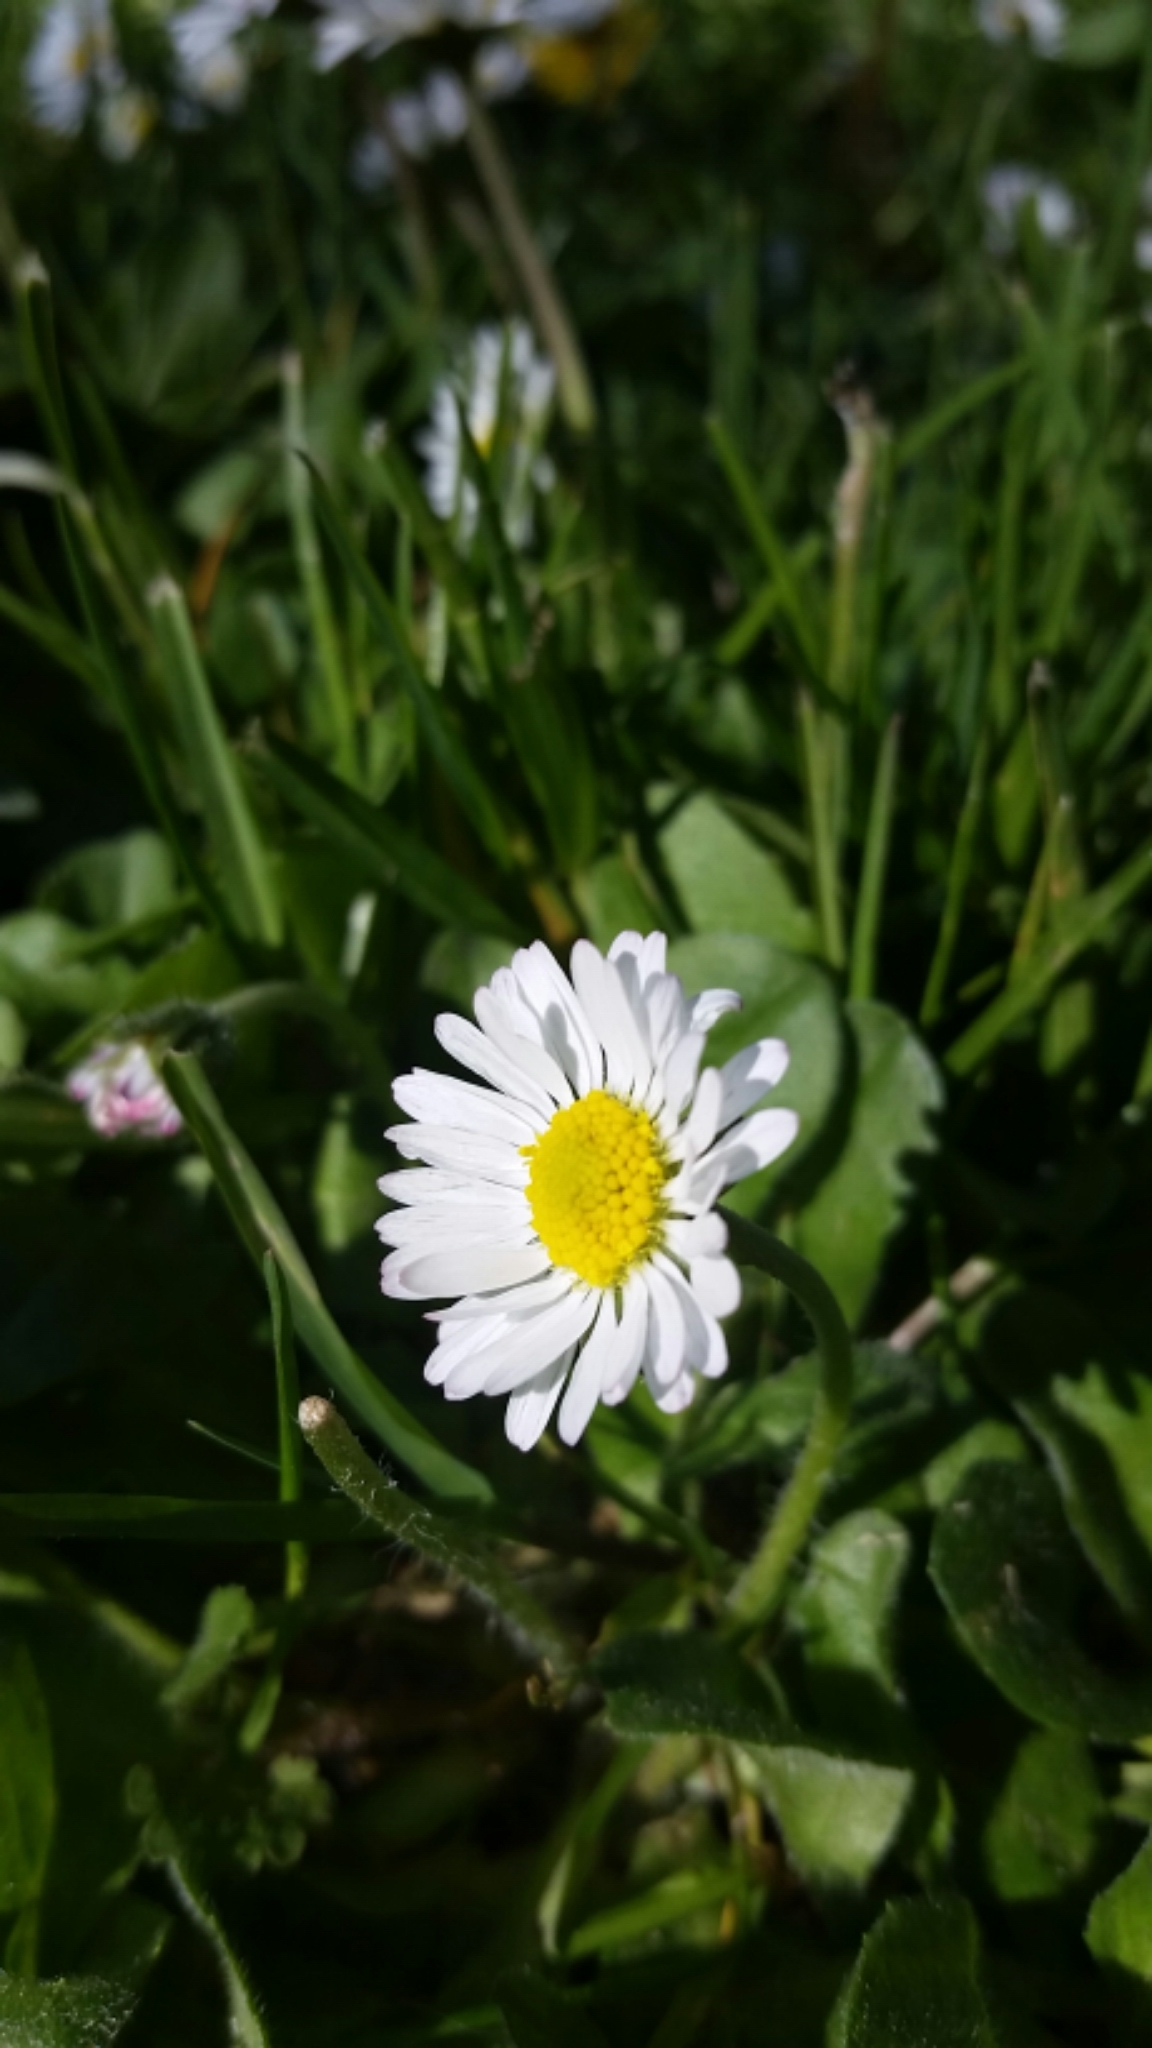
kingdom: Plantae
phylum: Tracheophyta
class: Magnoliopsida
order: Asterales
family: Asteraceae
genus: Bellis
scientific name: Bellis perennis
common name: Lawndaisy
